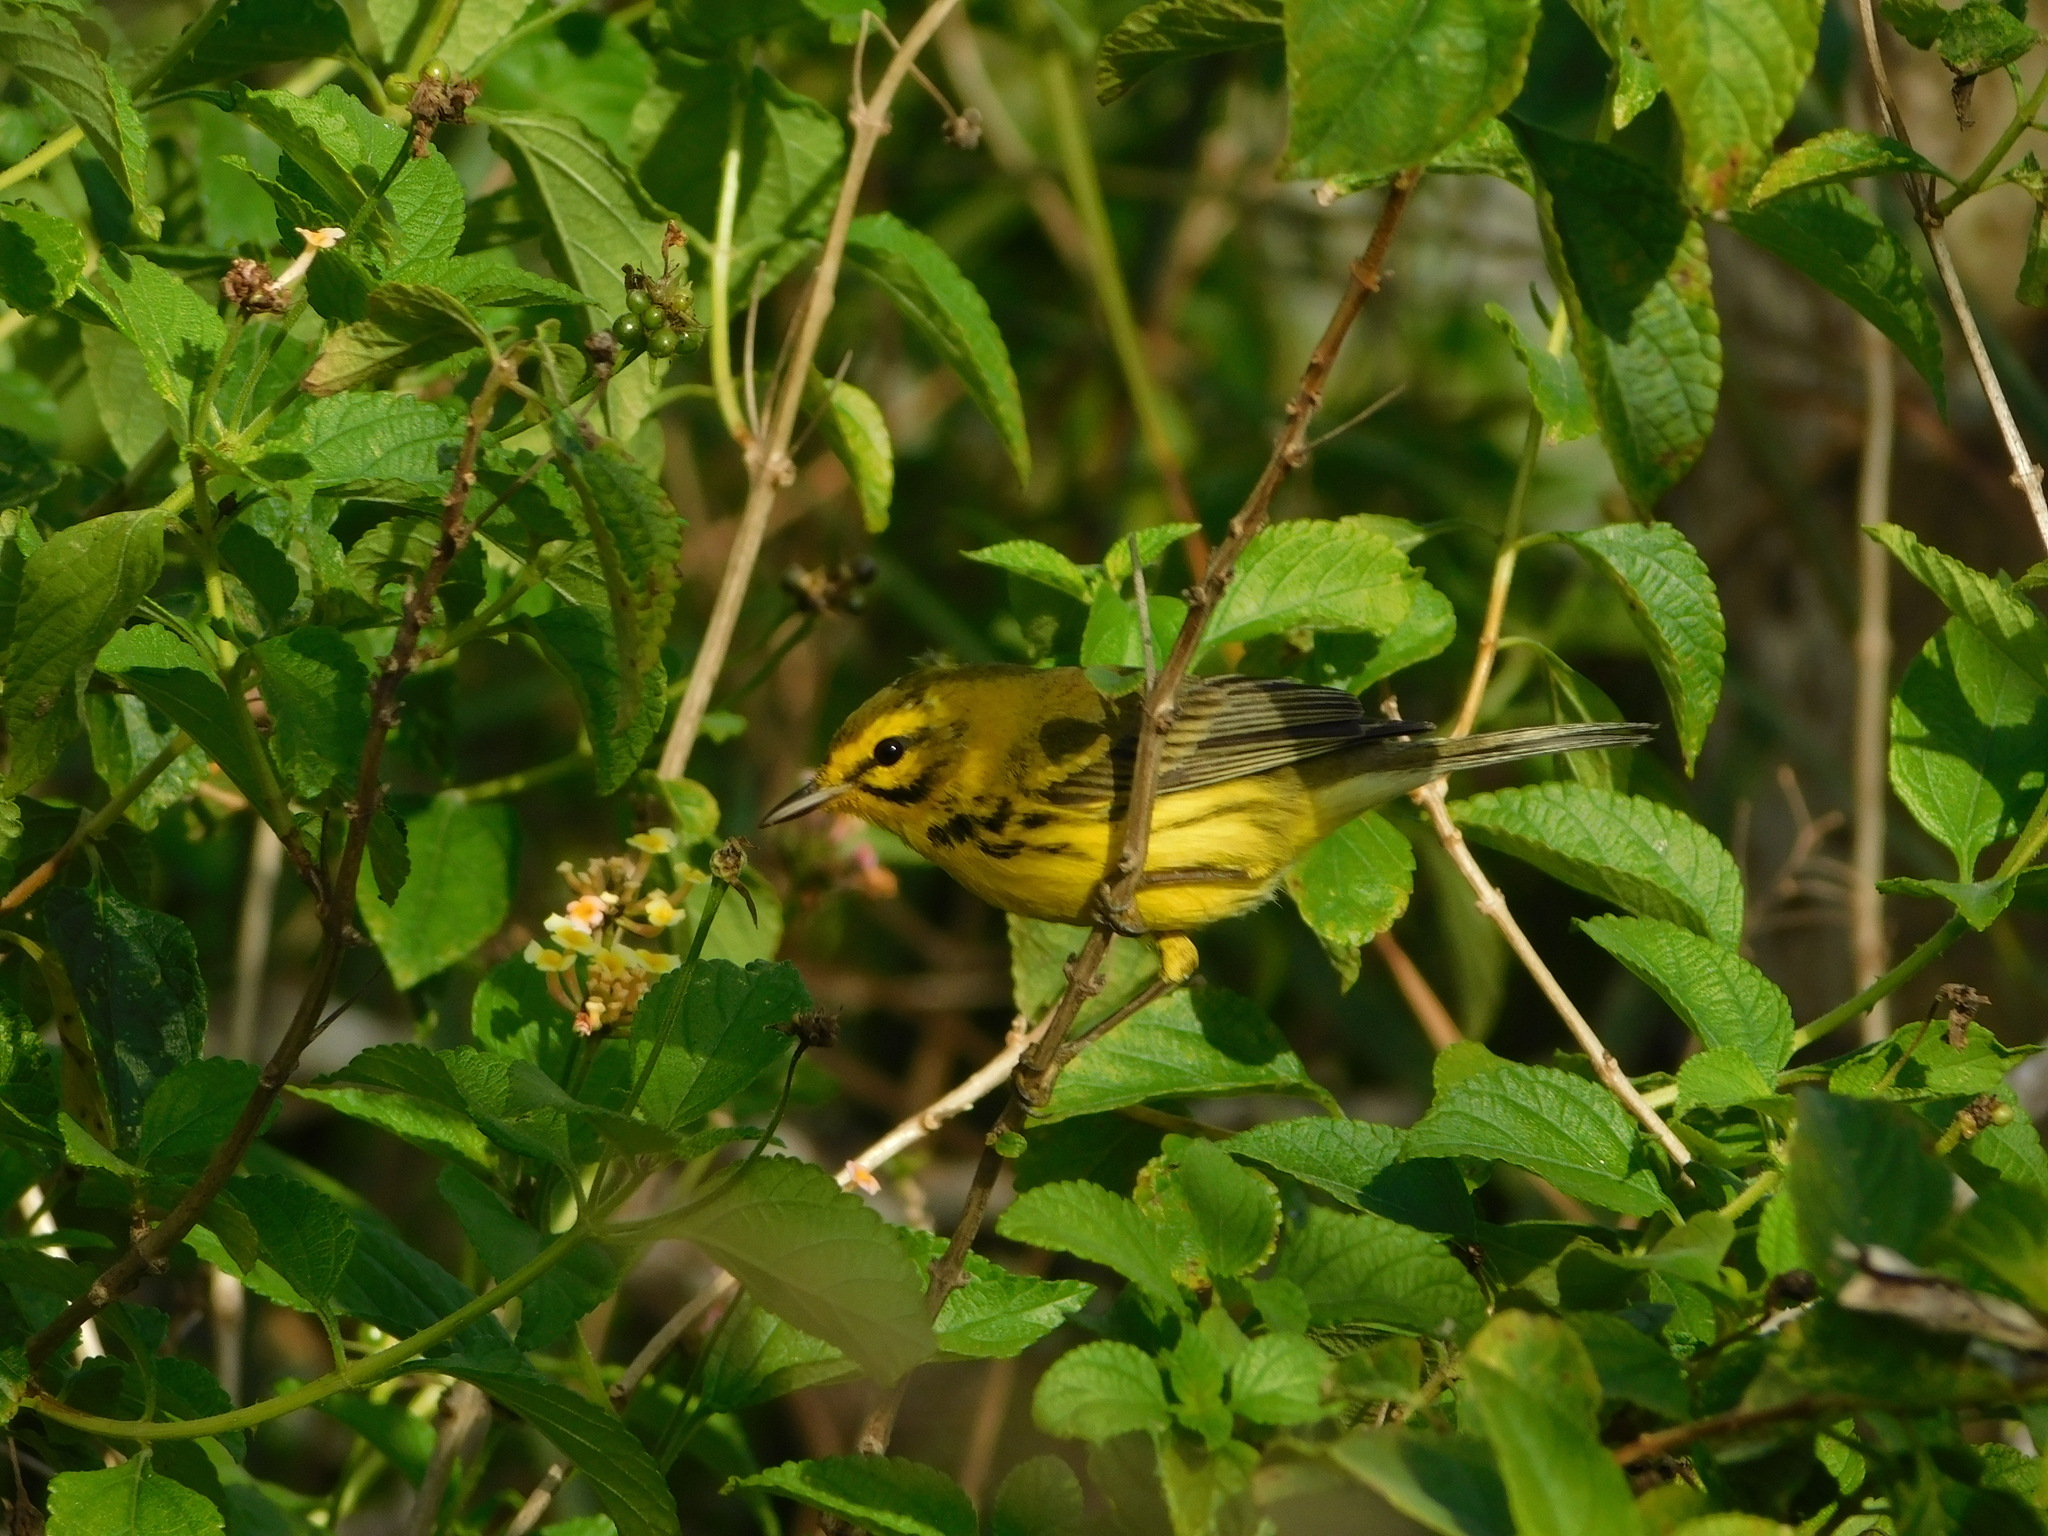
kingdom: Animalia
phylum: Chordata
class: Aves
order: Passeriformes
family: Parulidae
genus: Setophaga
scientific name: Setophaga discolor
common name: Prairie warbler
